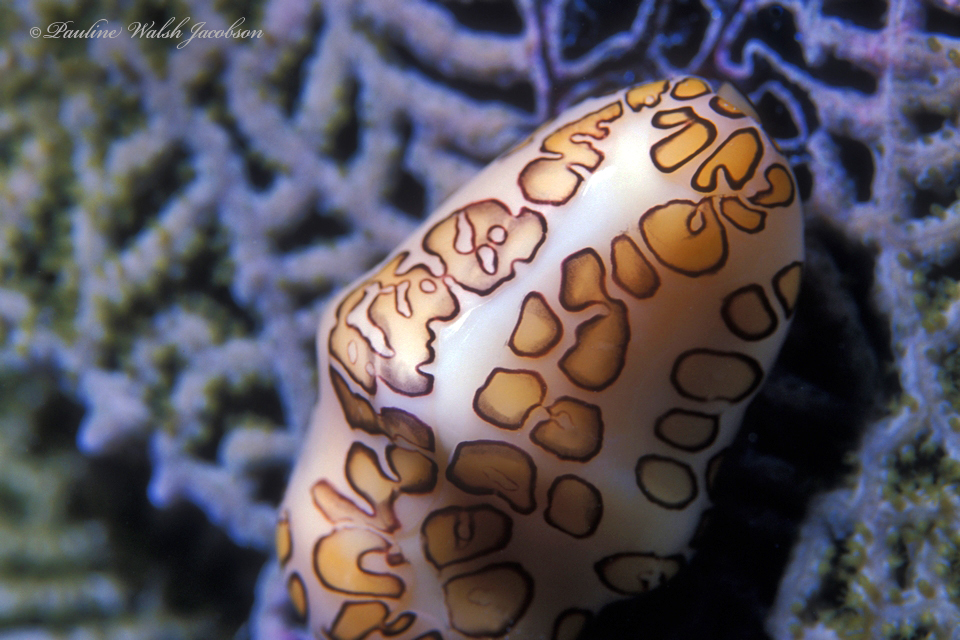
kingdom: Animalia
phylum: Mollusca
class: Gastropoda
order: Littorinimorpha
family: Ovulidae
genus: Cyphoma
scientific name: Cyphoma gibbosum
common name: Flamingo tongue
